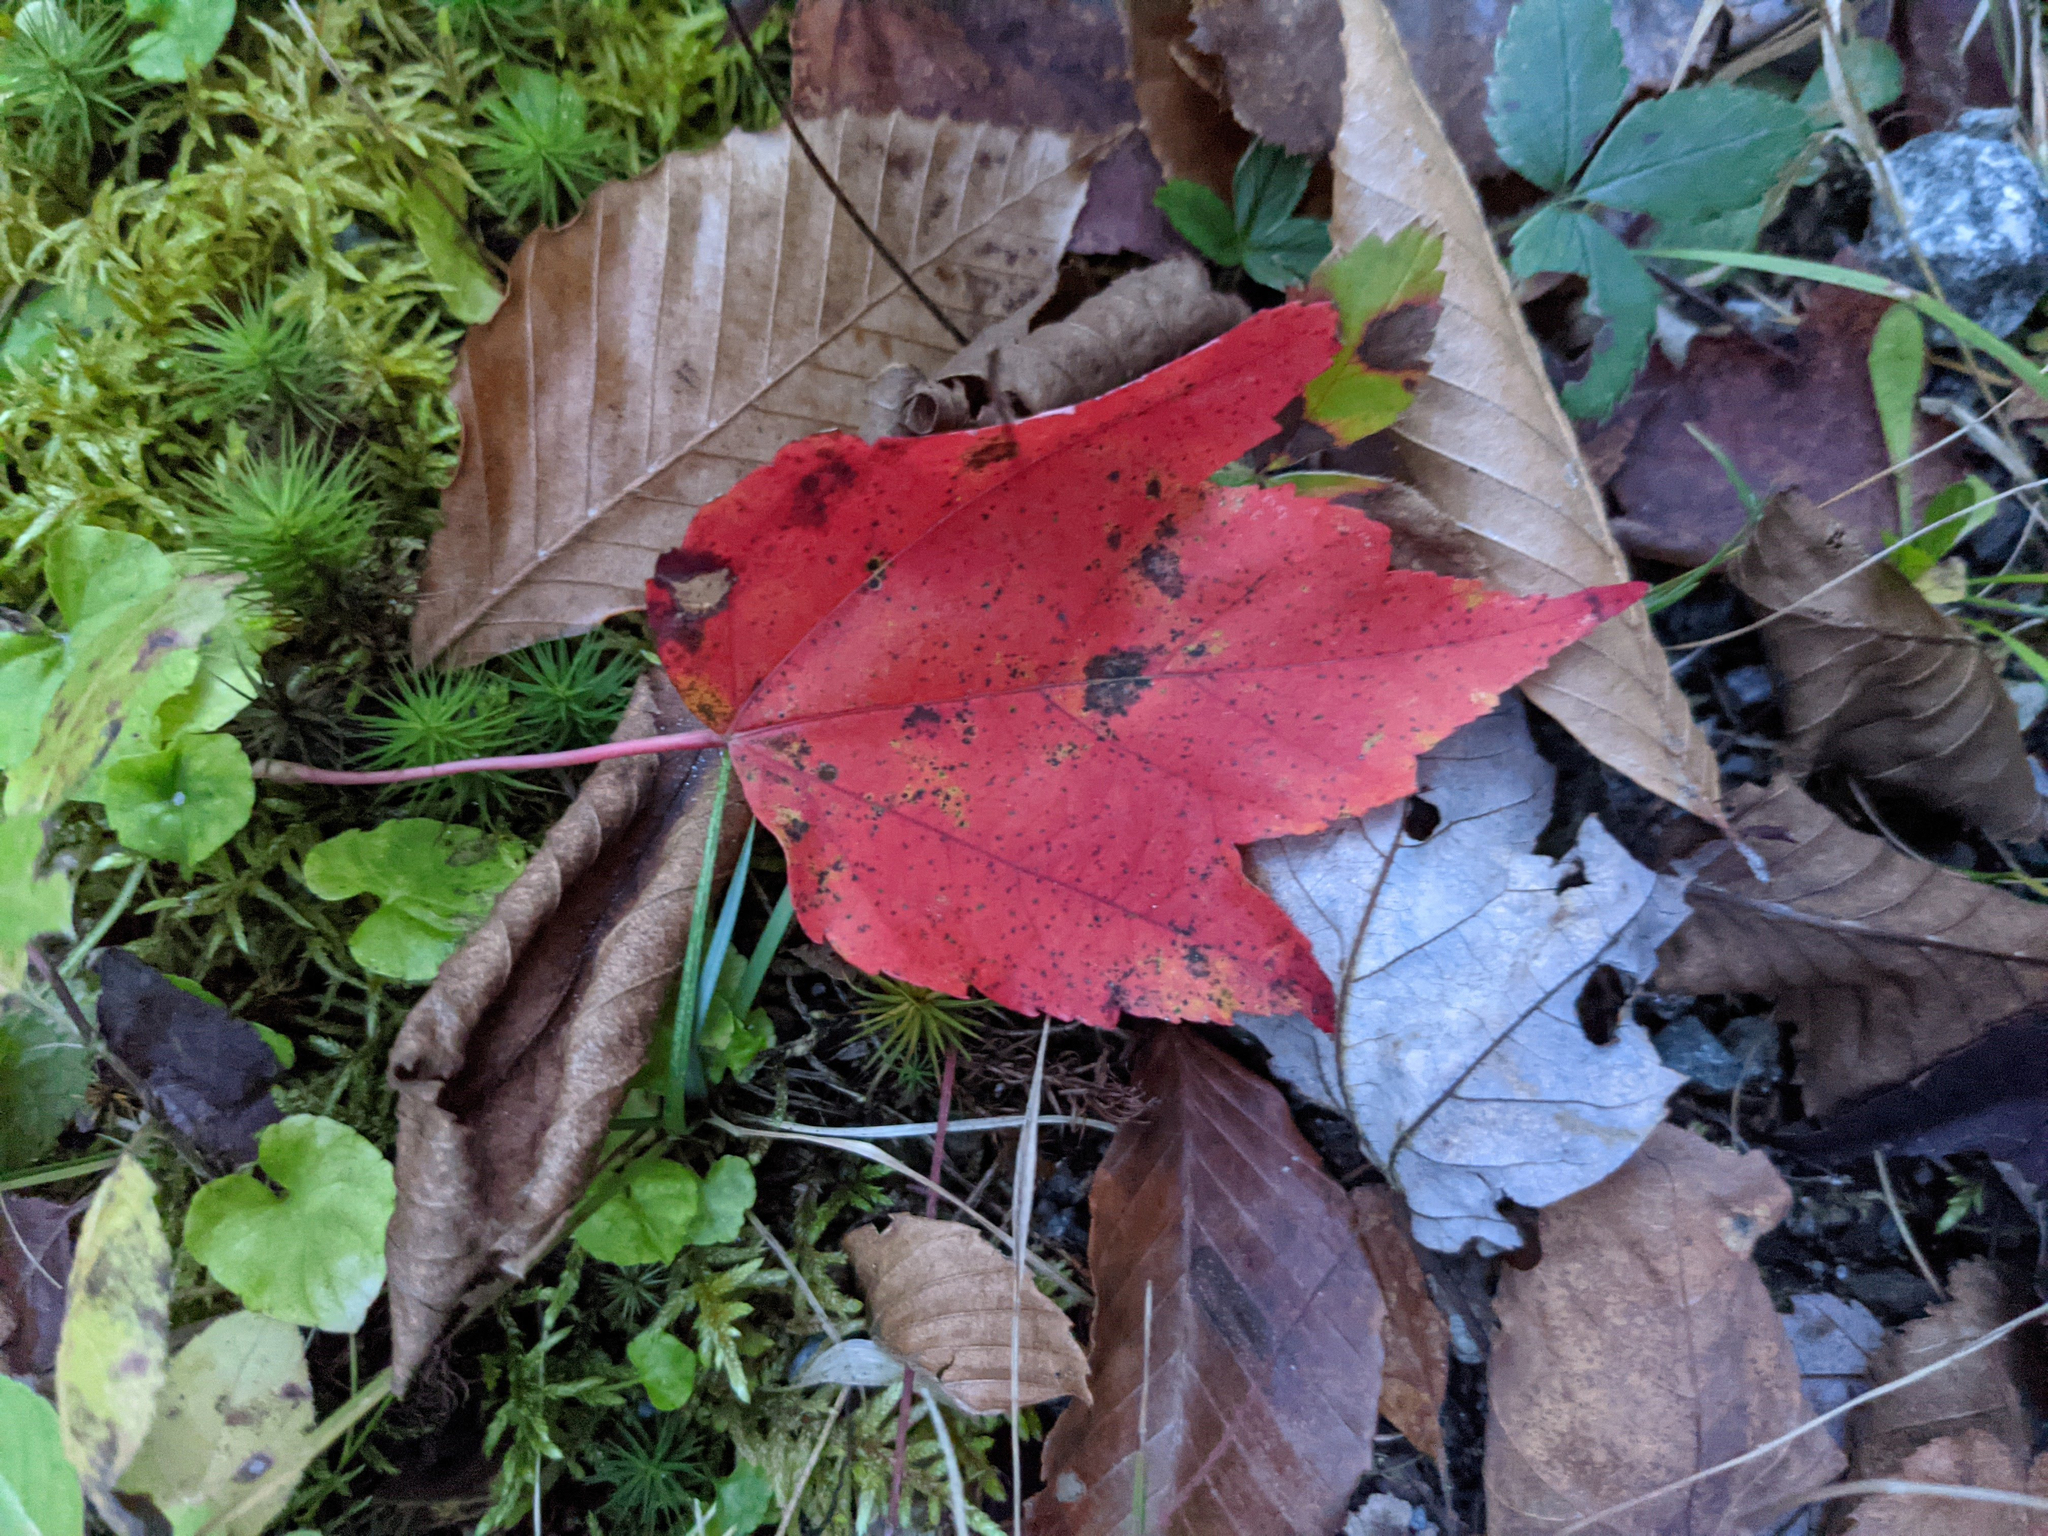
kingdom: Plantae
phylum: Tracheophyta
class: Magnoliopsida
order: Sapindales
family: Sapindaceae
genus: Acer
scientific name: Acer rubrum
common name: Red maple
